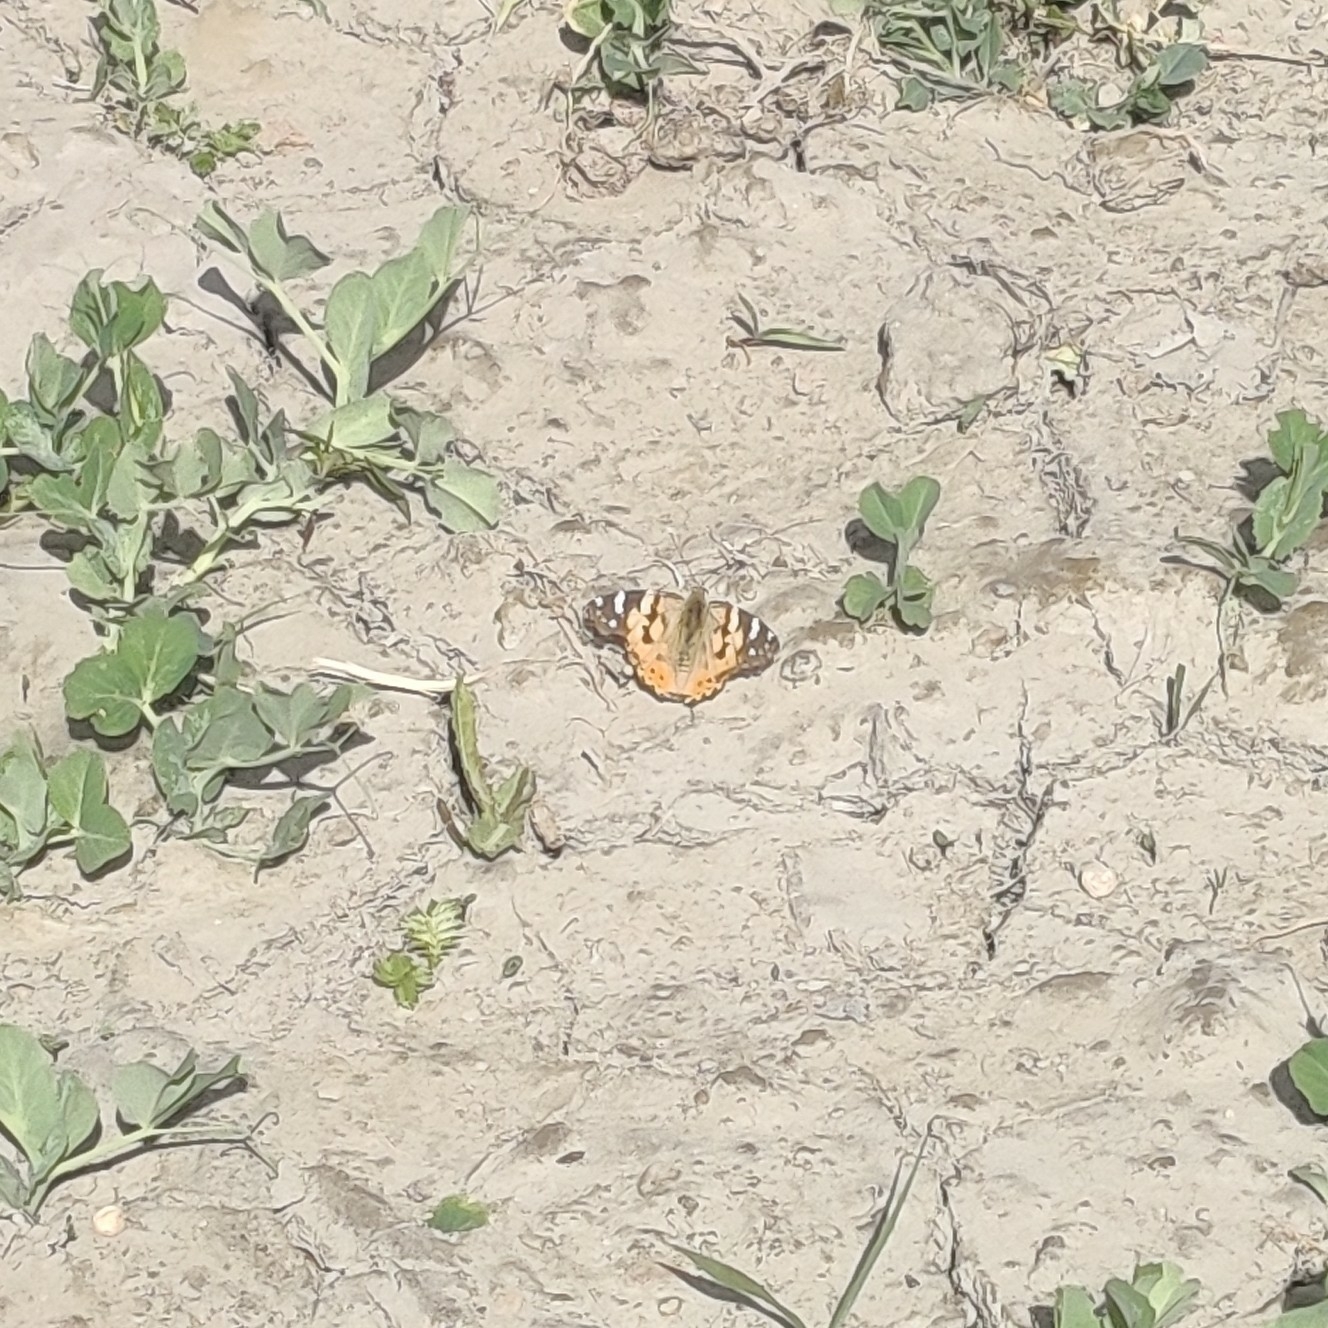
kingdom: Animalia
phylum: Arthropoda
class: Insecta
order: Lepidoptera
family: Nymphalidae
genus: Vanessa
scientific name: Vanessa cardui
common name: Painted lady
